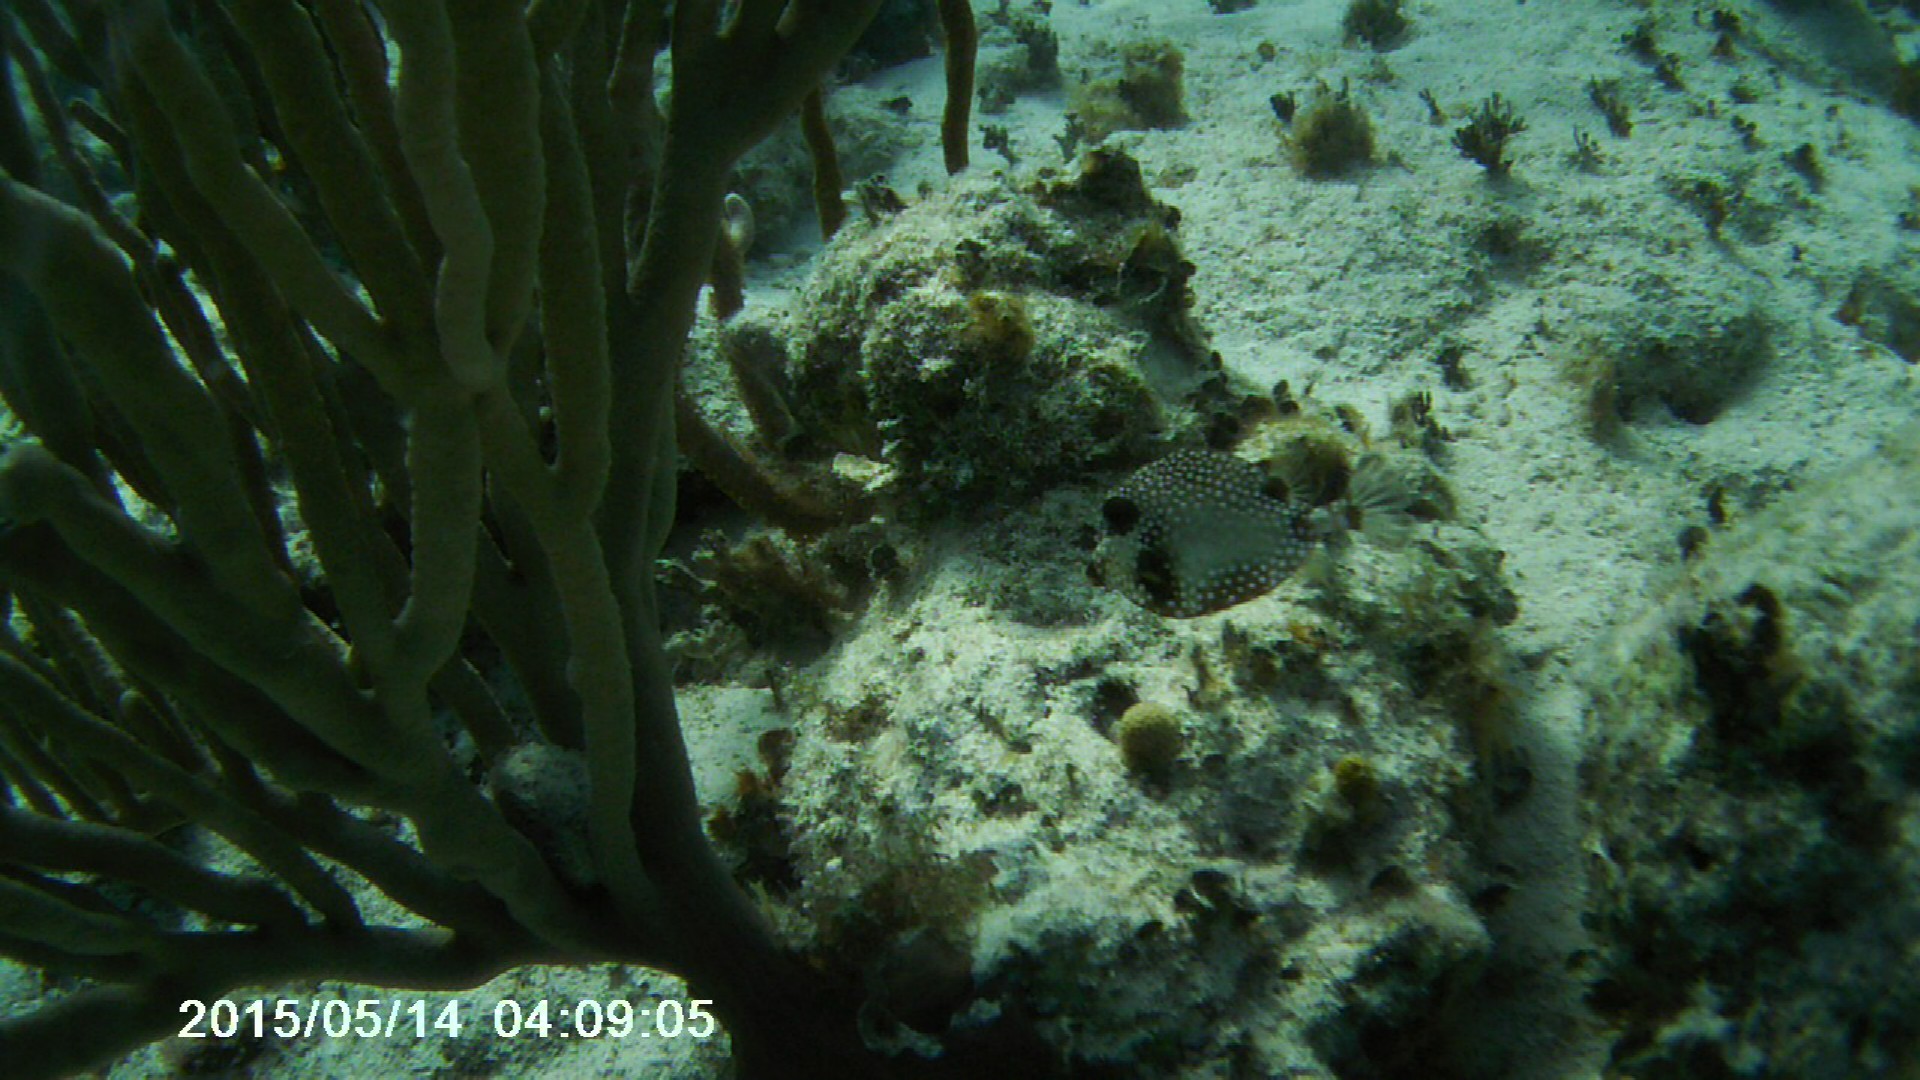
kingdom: Animalia
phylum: Chordata
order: Tetraodontiformes
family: Ostraciidae
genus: Lactophrys
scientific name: Lactophrys triqueter
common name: Smooth trunkfish
